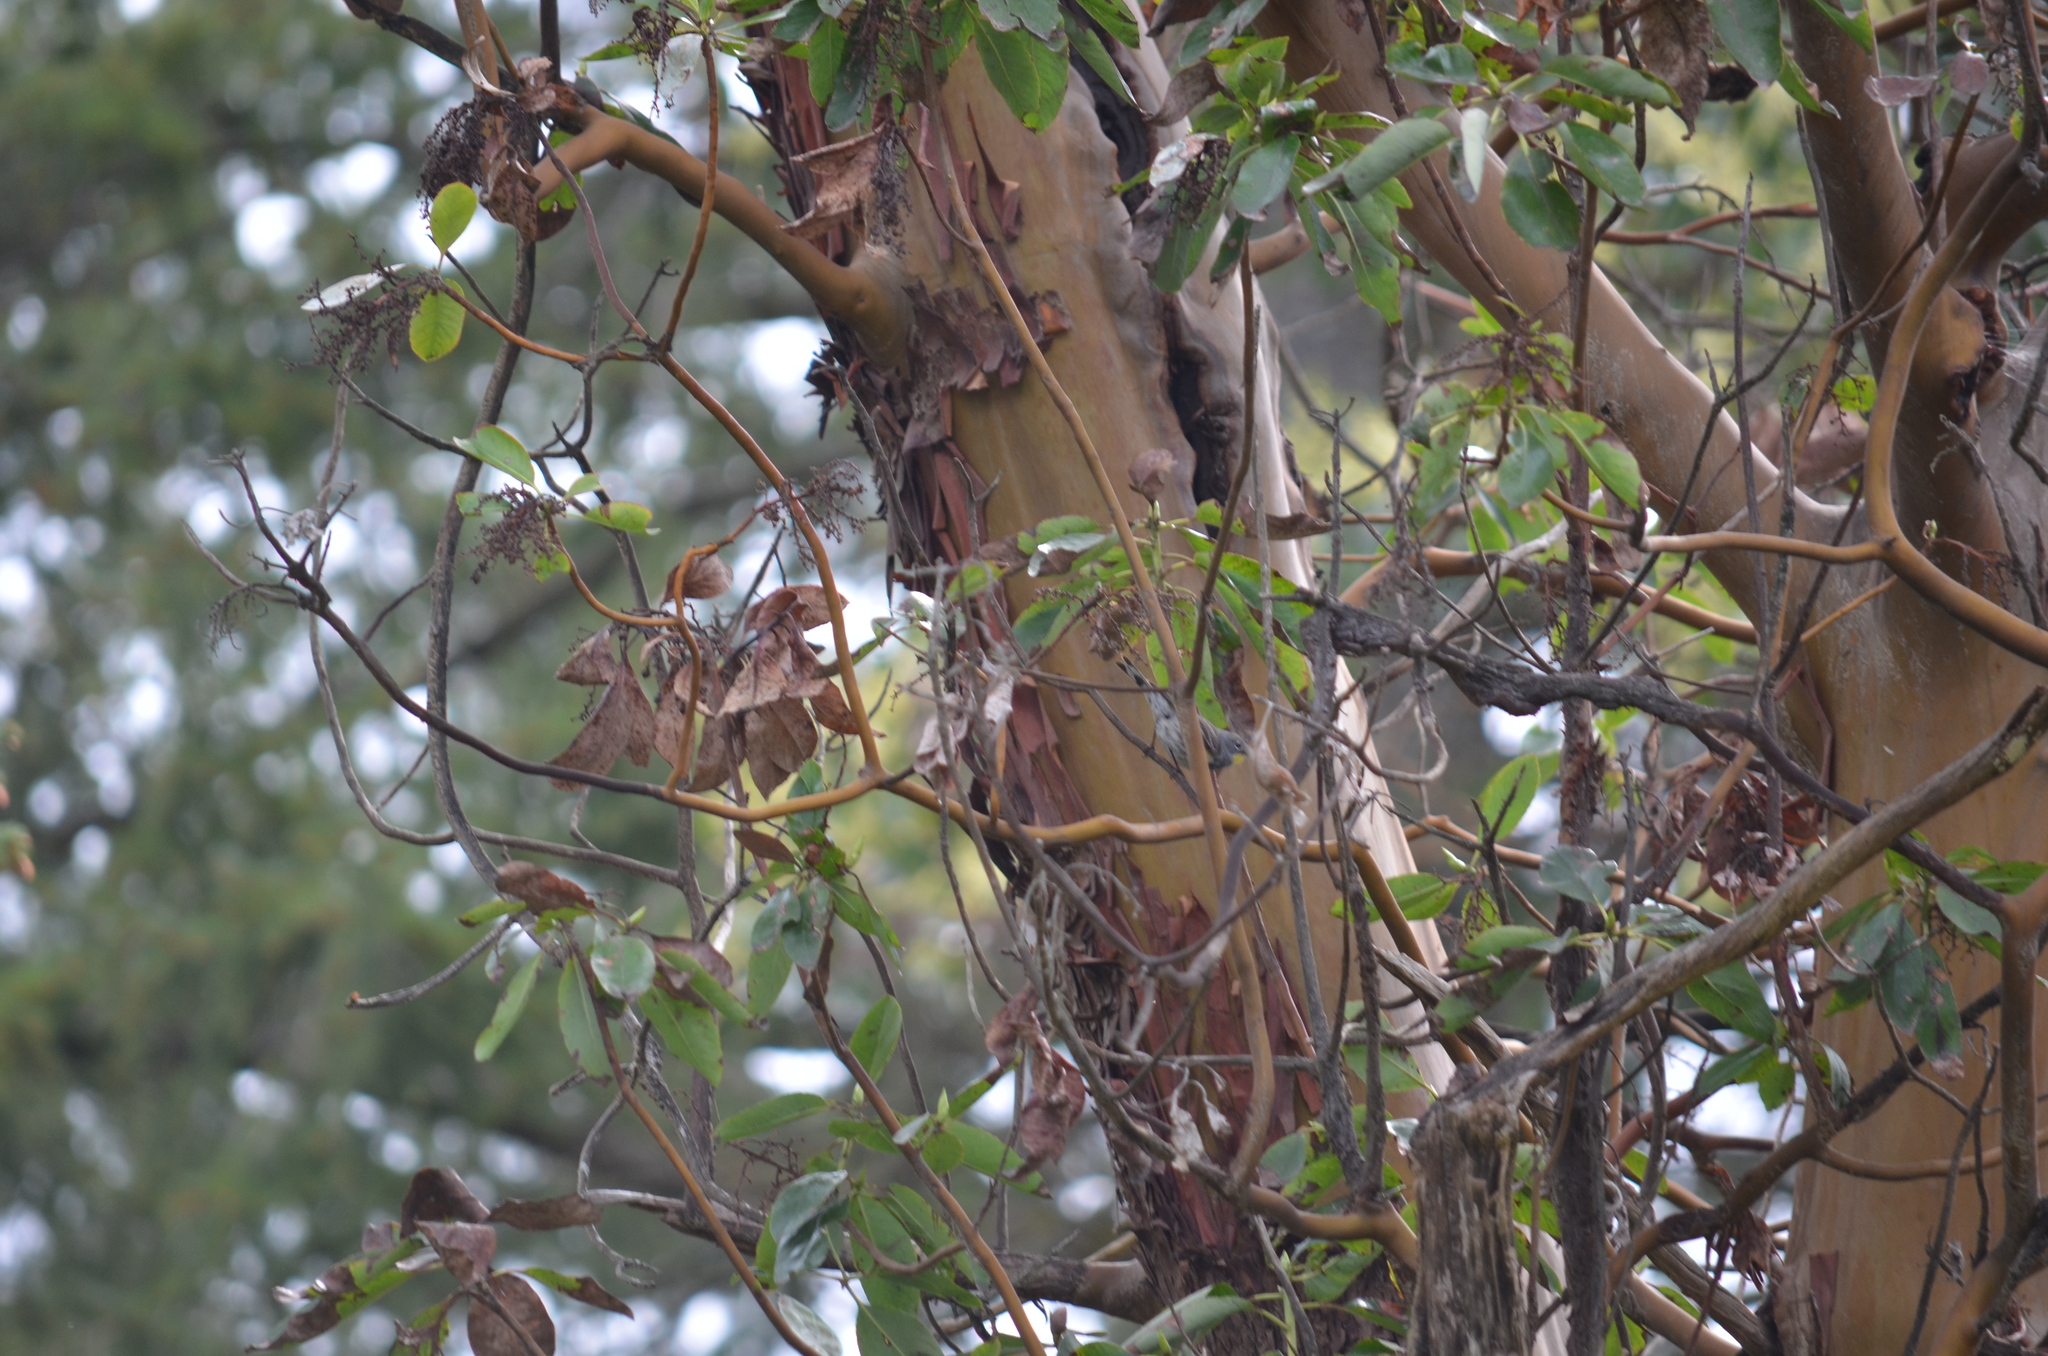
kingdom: Animalia
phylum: Chordata
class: Aves
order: Passeriformes
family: Parulidae
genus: Setophaga
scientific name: Setophaga auduboni
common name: Audubon's warbler
